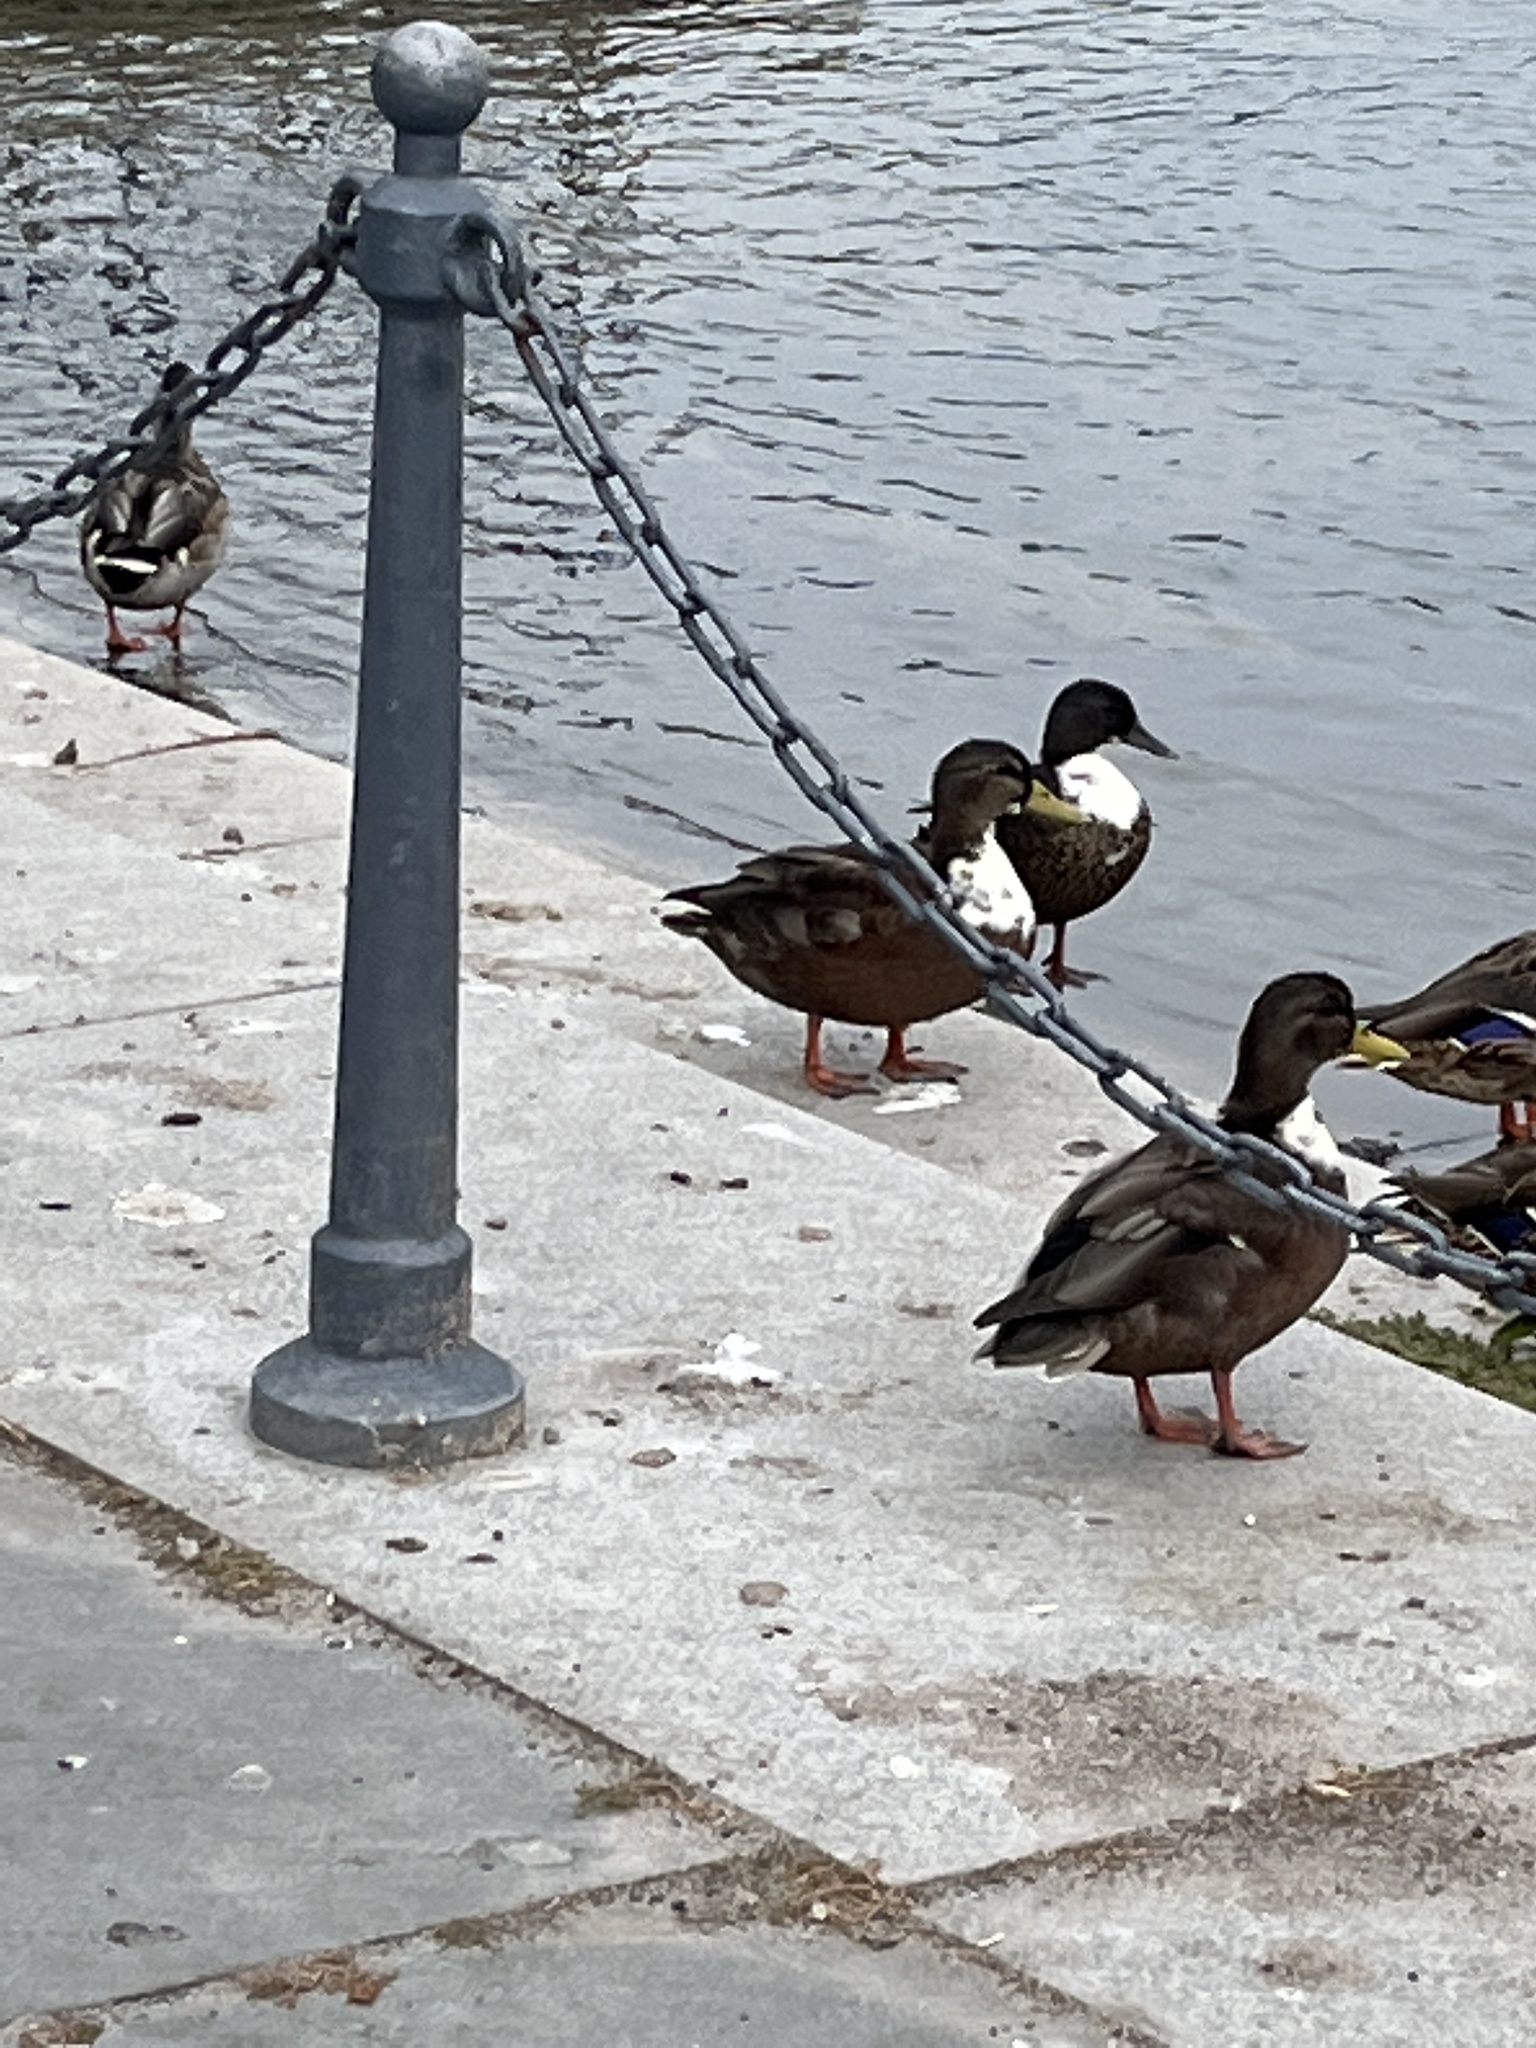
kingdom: Animalia
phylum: Chordata
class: Aves
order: Anseriformes
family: Anatidae
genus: Anas
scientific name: Anas platyrhynchos
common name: Mallard
